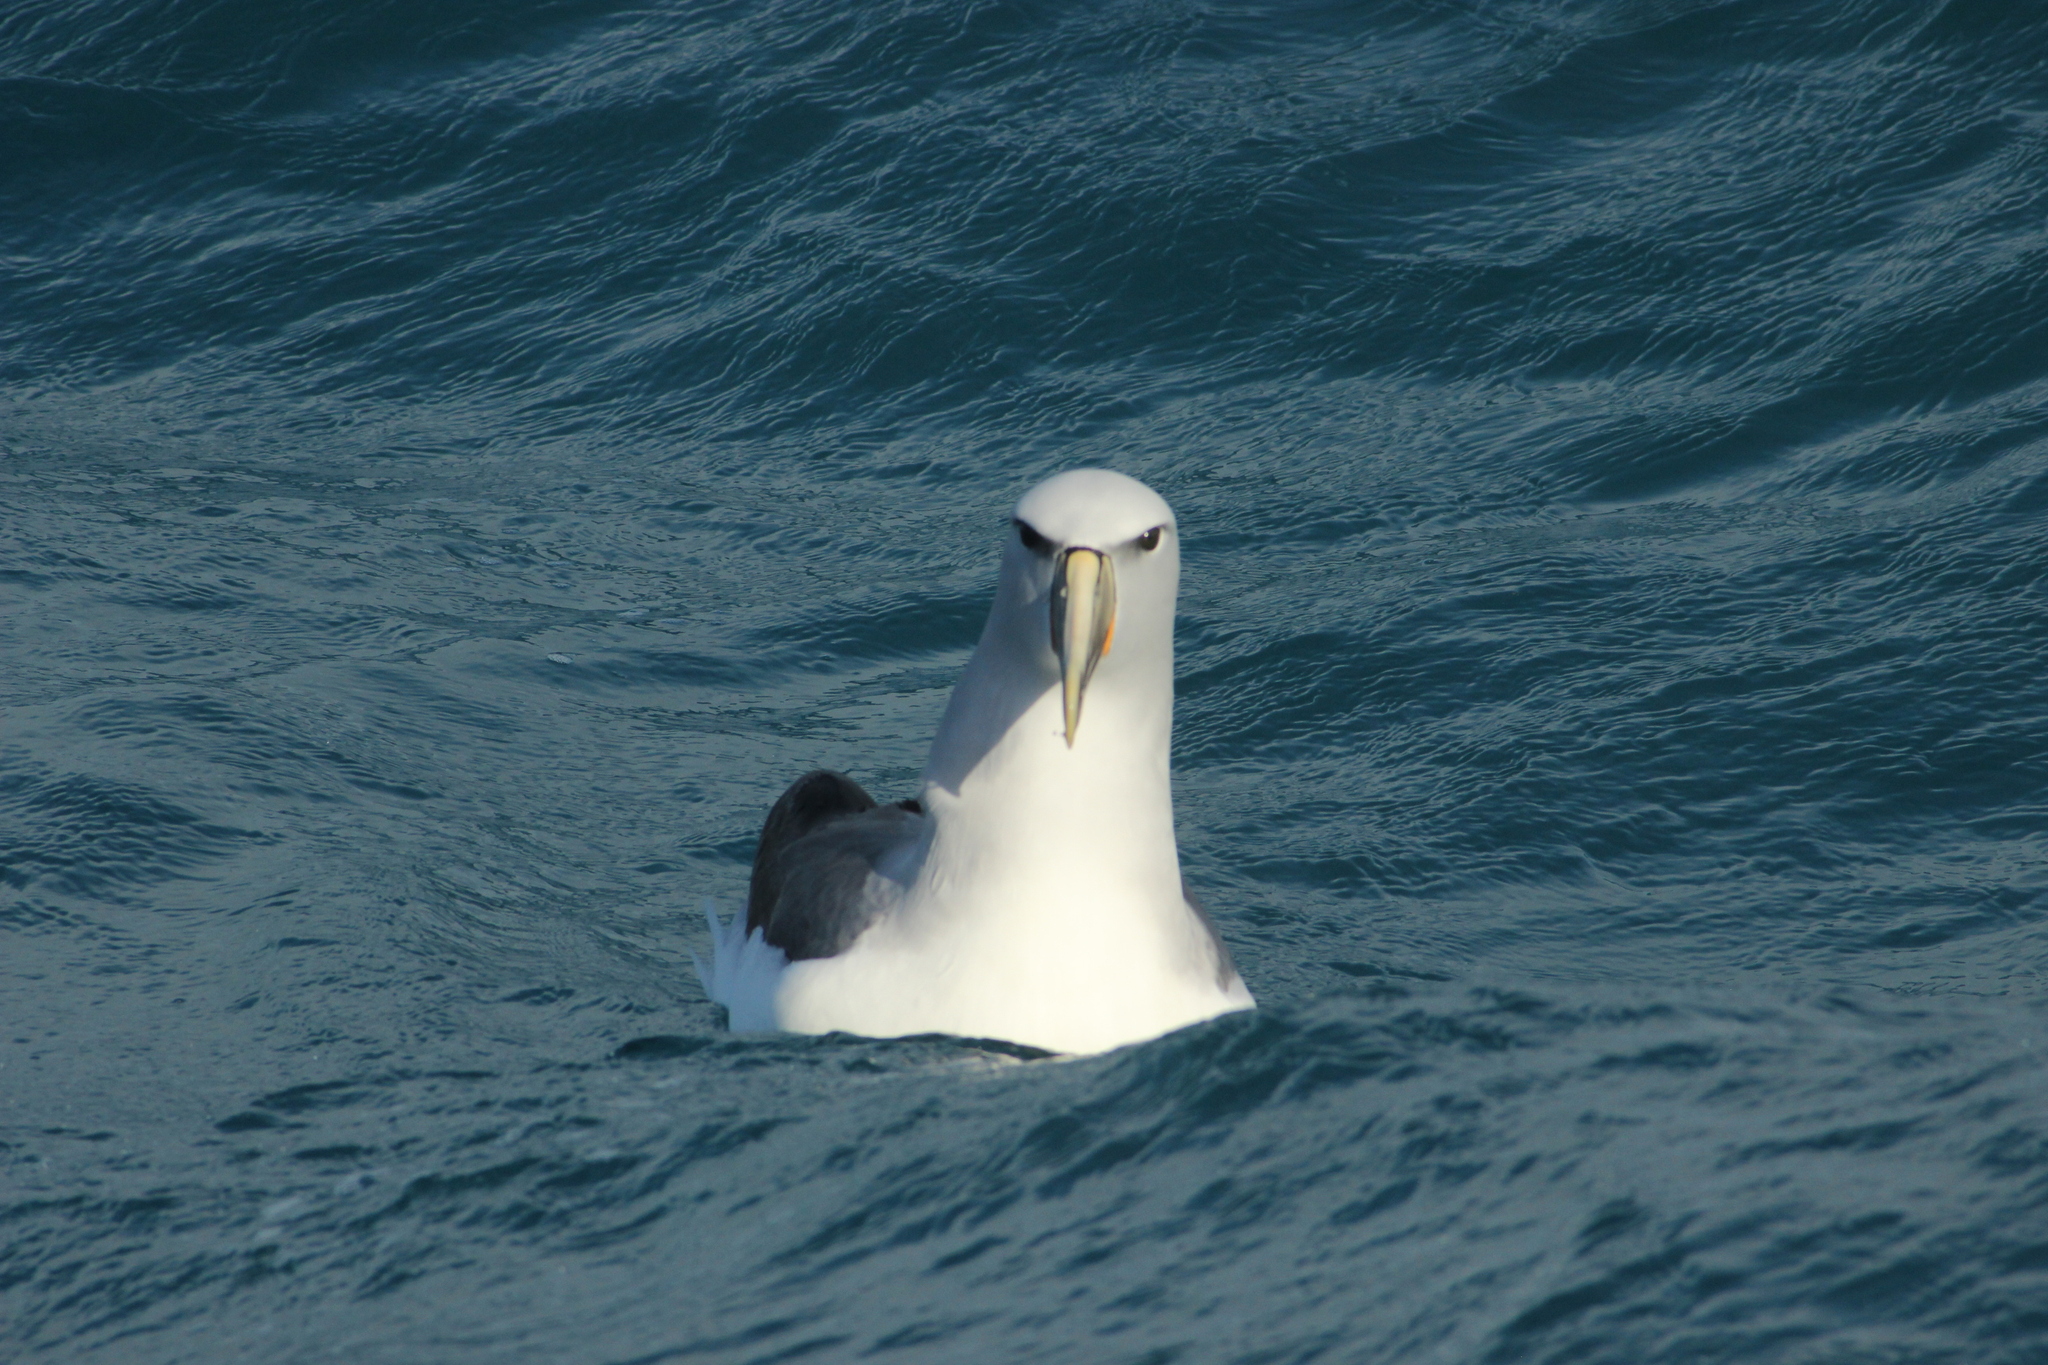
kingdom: Animalia
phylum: Chordata
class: Aves
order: Procellariiformes
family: Diomedeidae
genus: Thalassarche
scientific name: Thalassarche salvini
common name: Salvin's albatross
